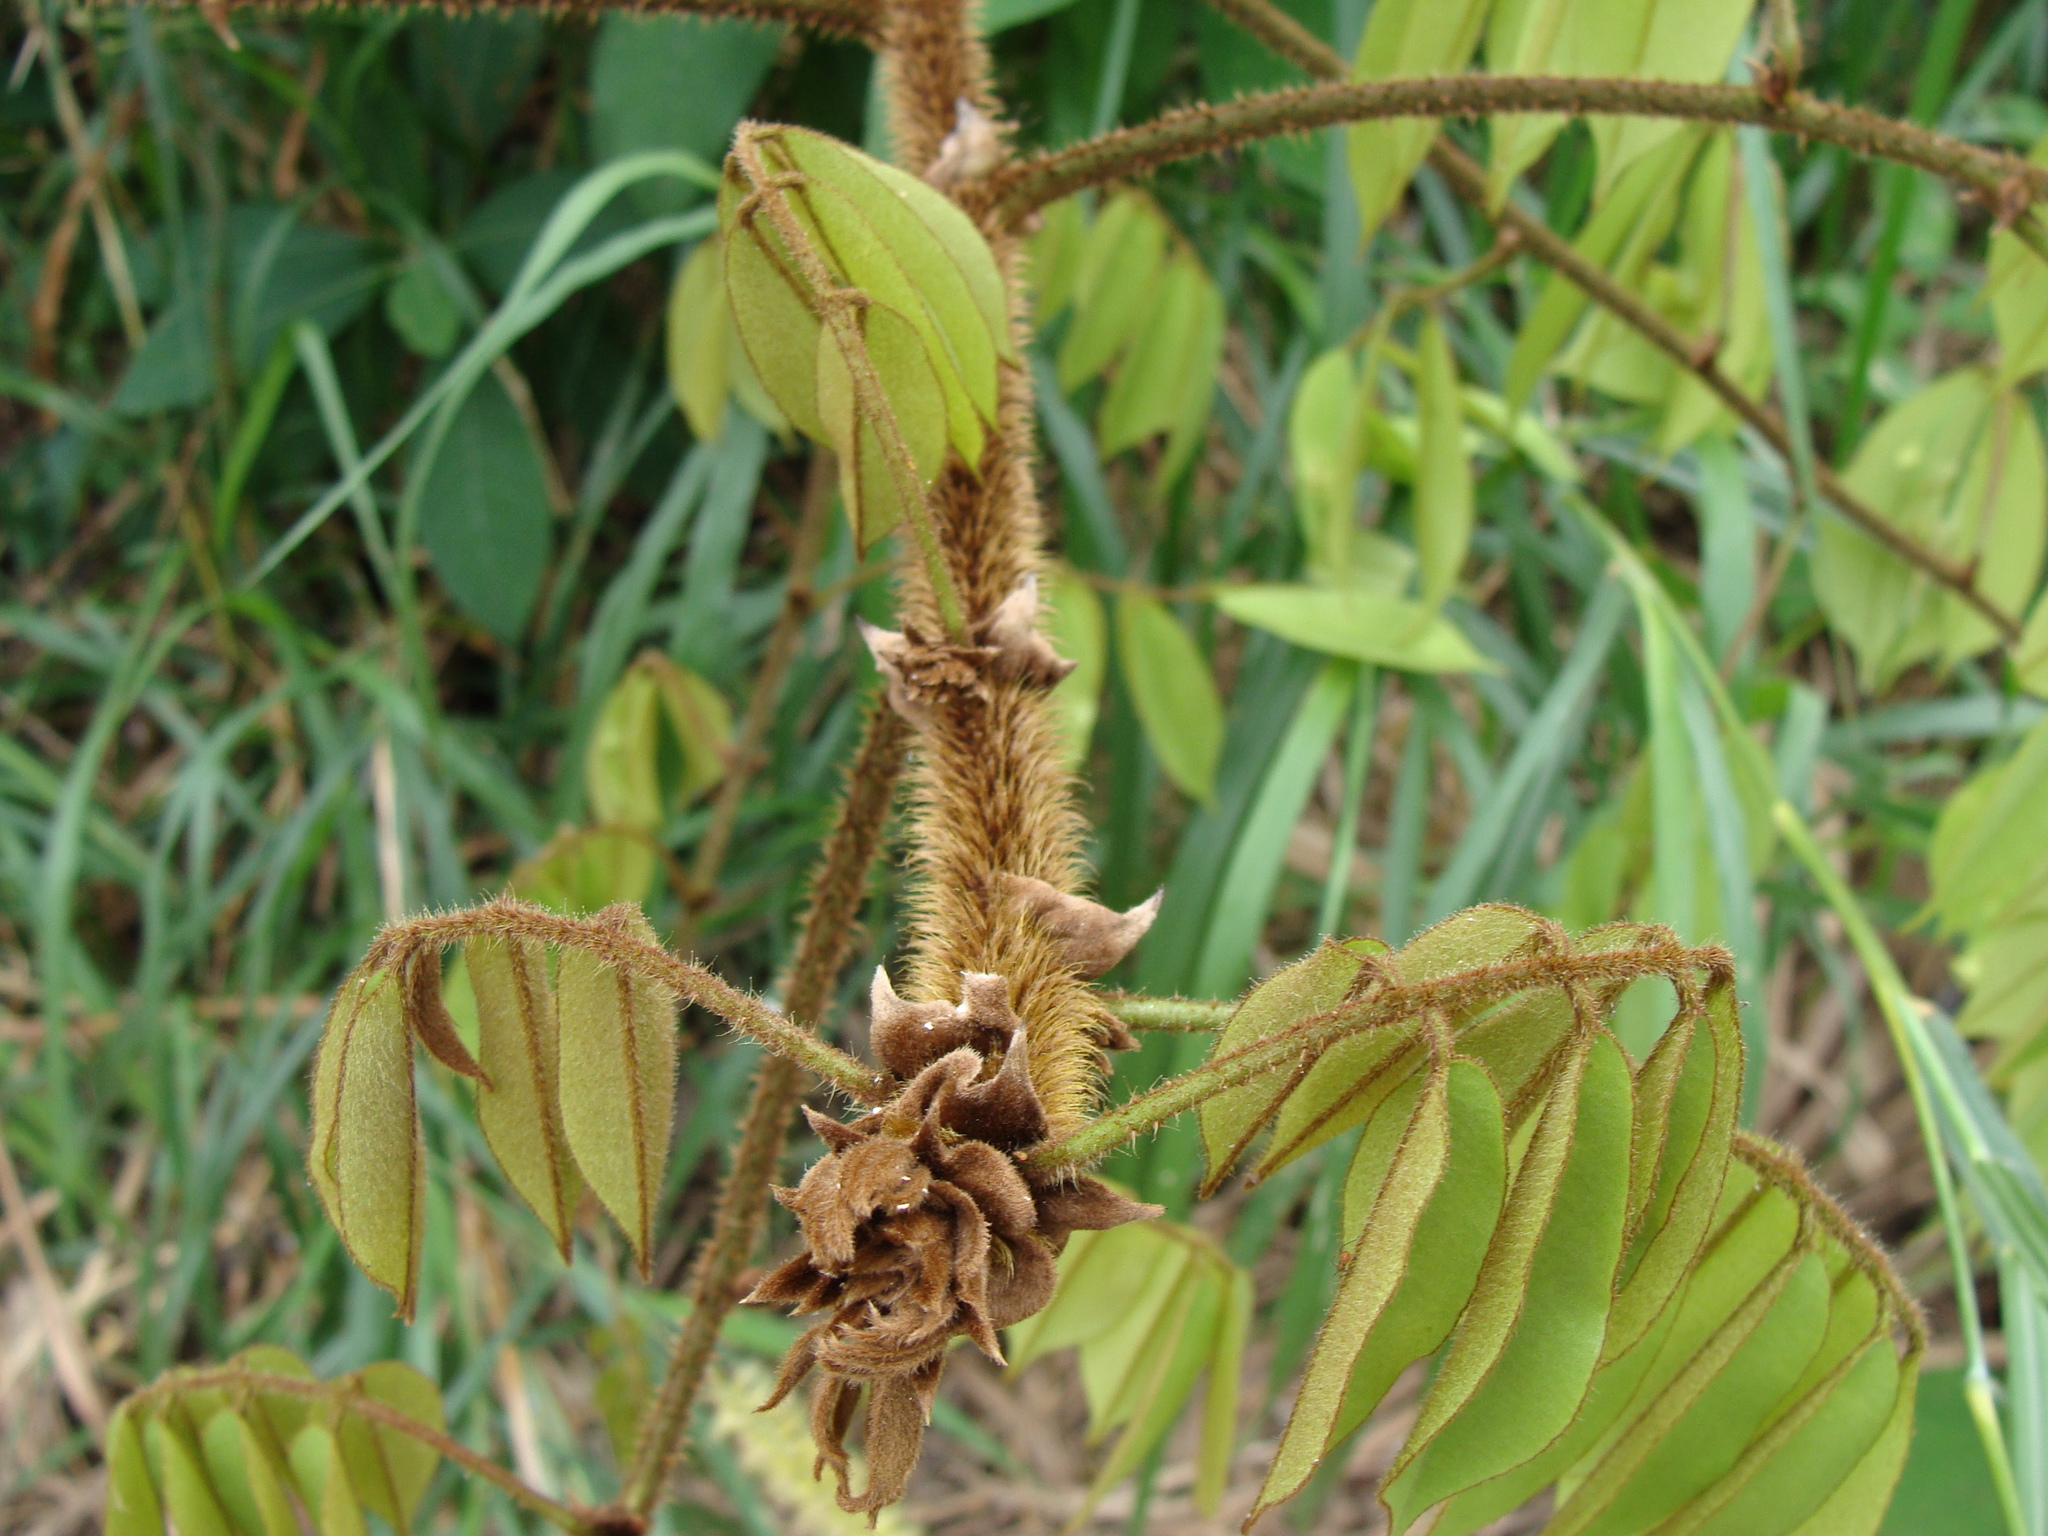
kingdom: Plantae
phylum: Tracheophyta
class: Magnoliopsida
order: Fabales
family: Fabaceae
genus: Machaerium
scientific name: Machaerium kegelii
